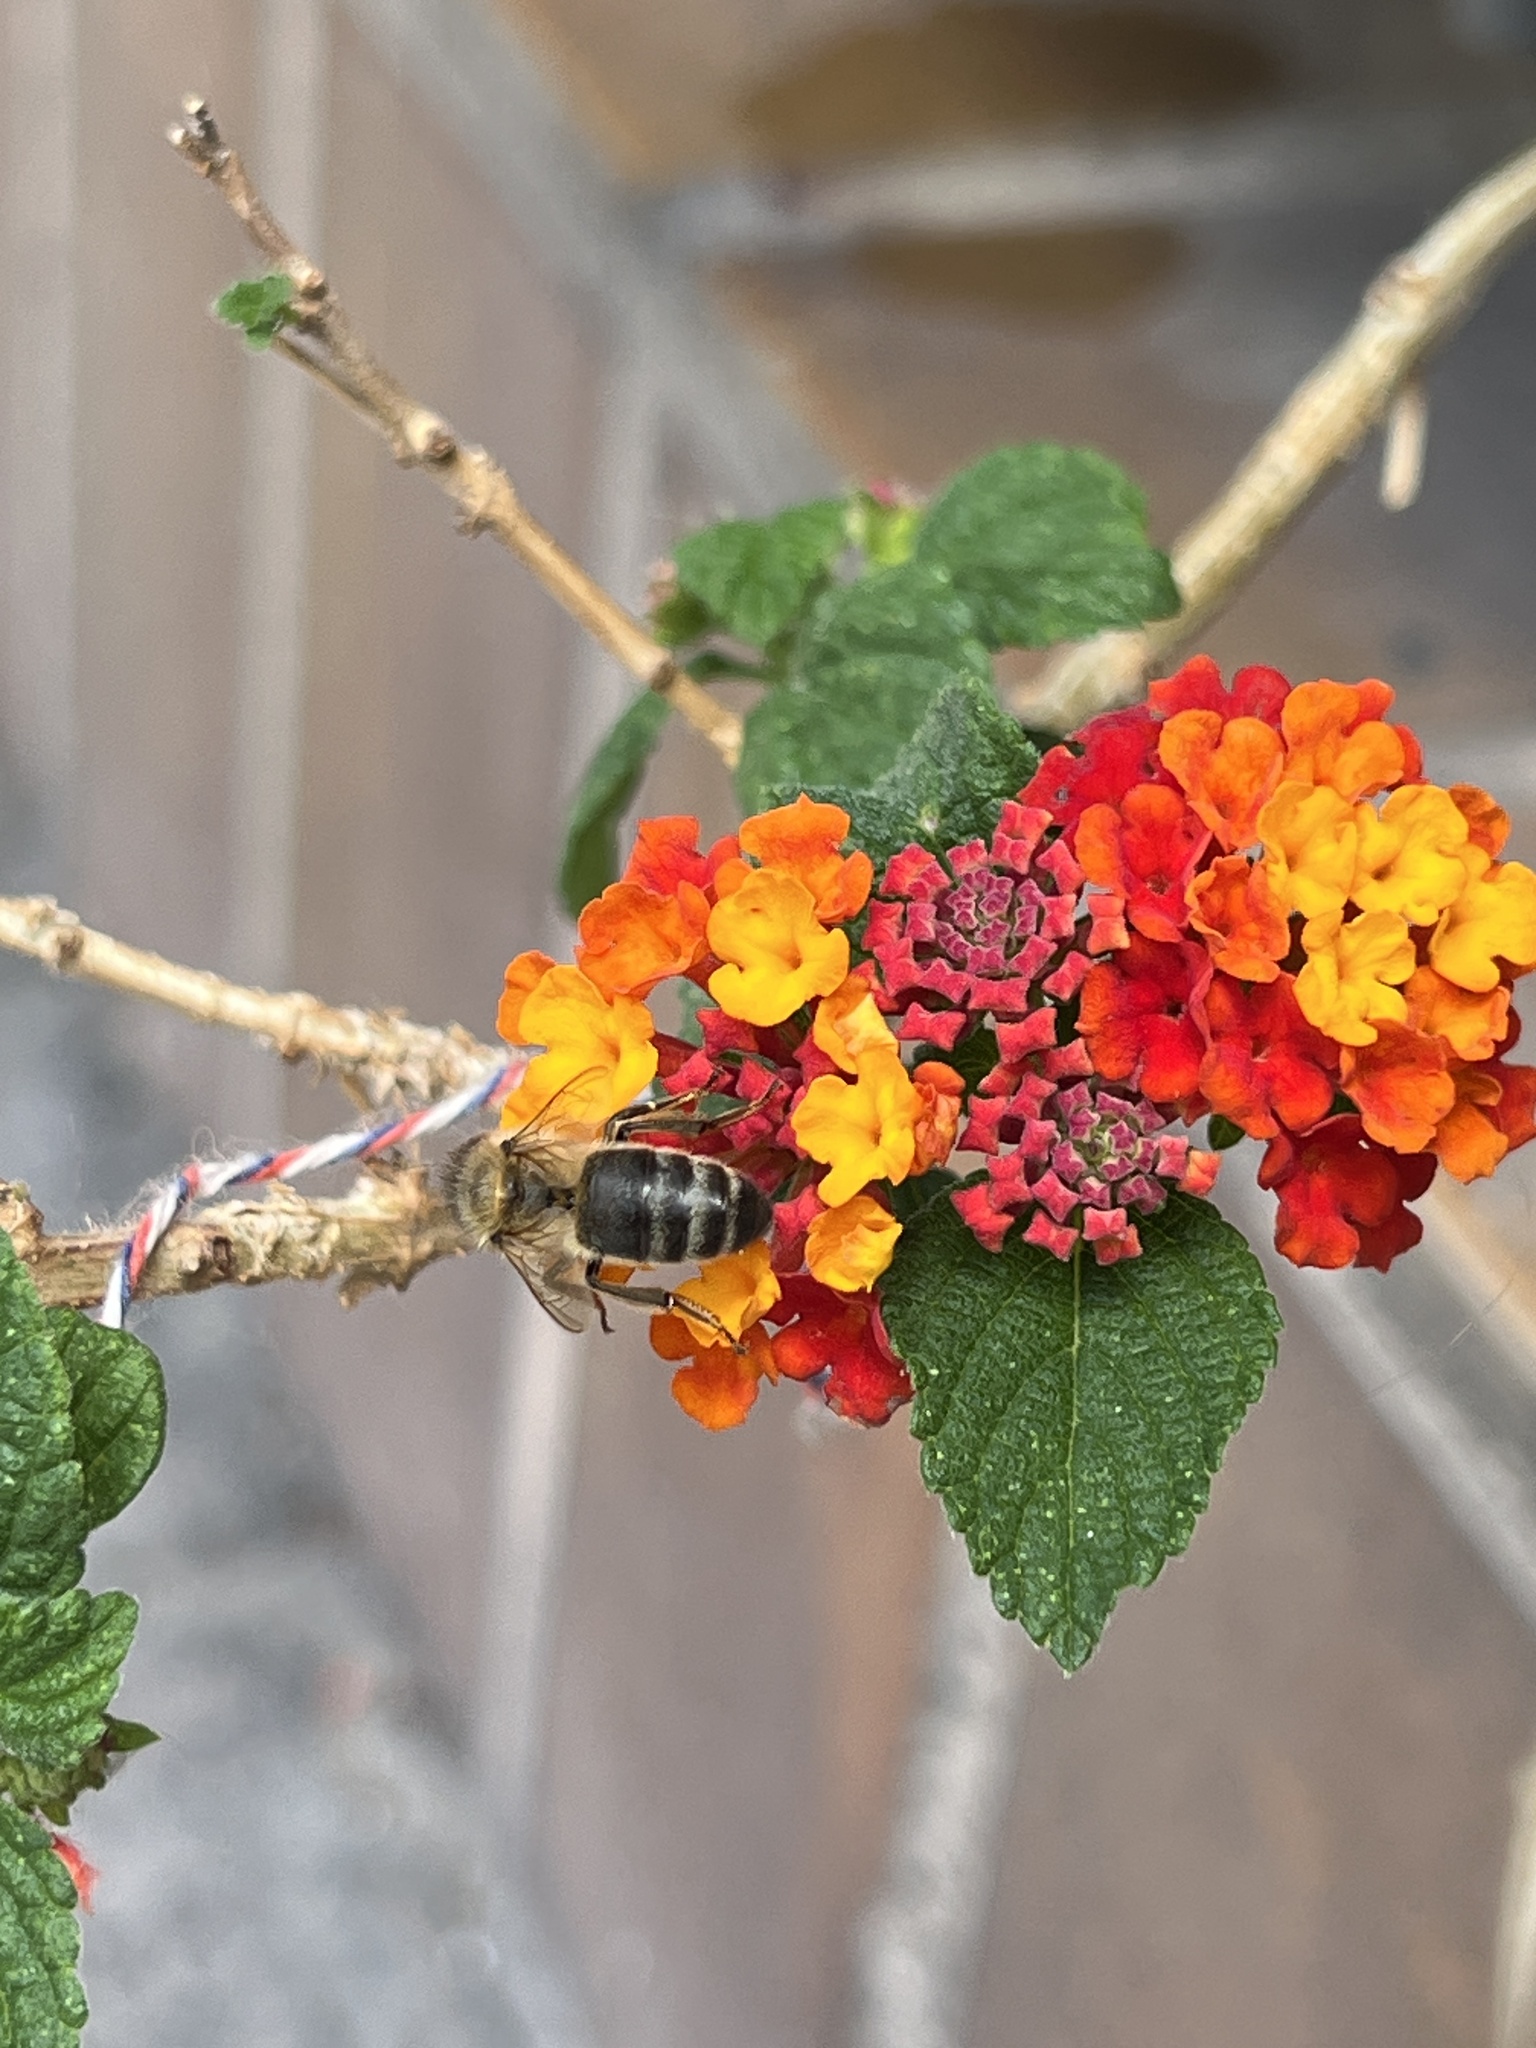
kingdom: Animalia
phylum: Arthropoda
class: Insecta
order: Hymenoptera
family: Apidae
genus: Apis
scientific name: Apis mellifera
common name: Honey bee
